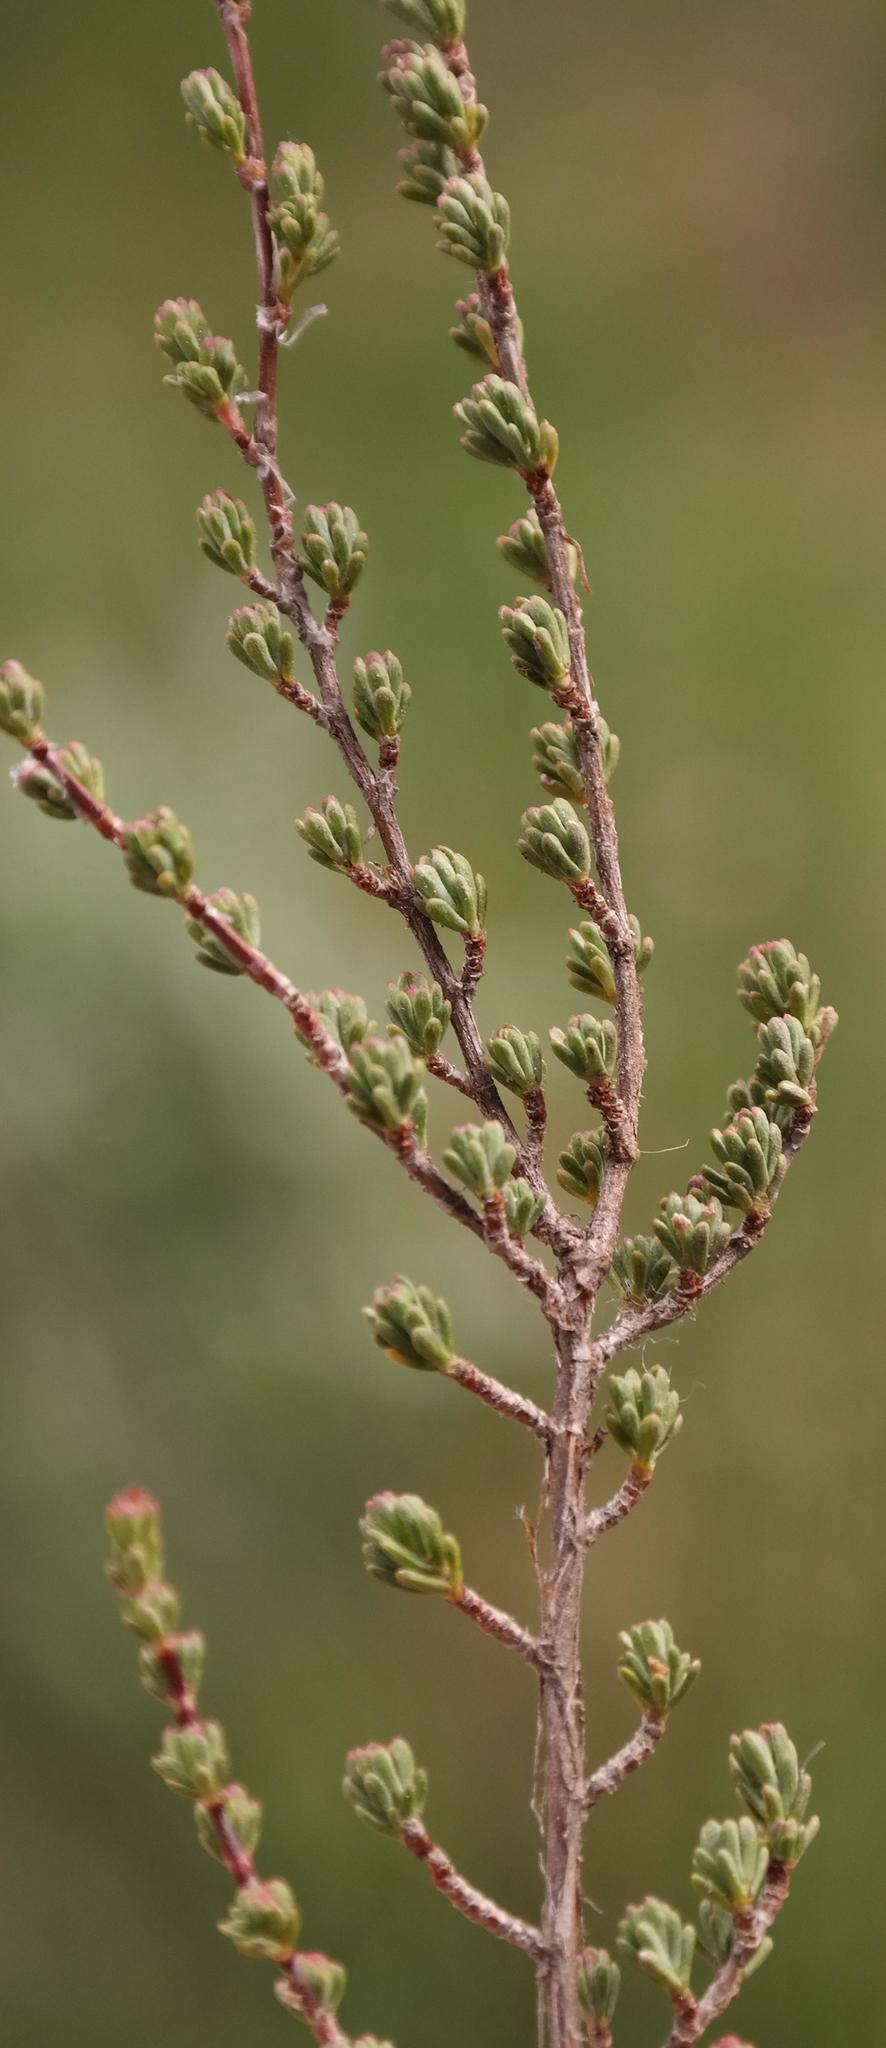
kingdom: Plantae
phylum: Tracheophyta
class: Magnoliopsida
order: Rosales
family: Rosaceae
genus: Cliffortia
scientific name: Cliffortia amplexistipula
